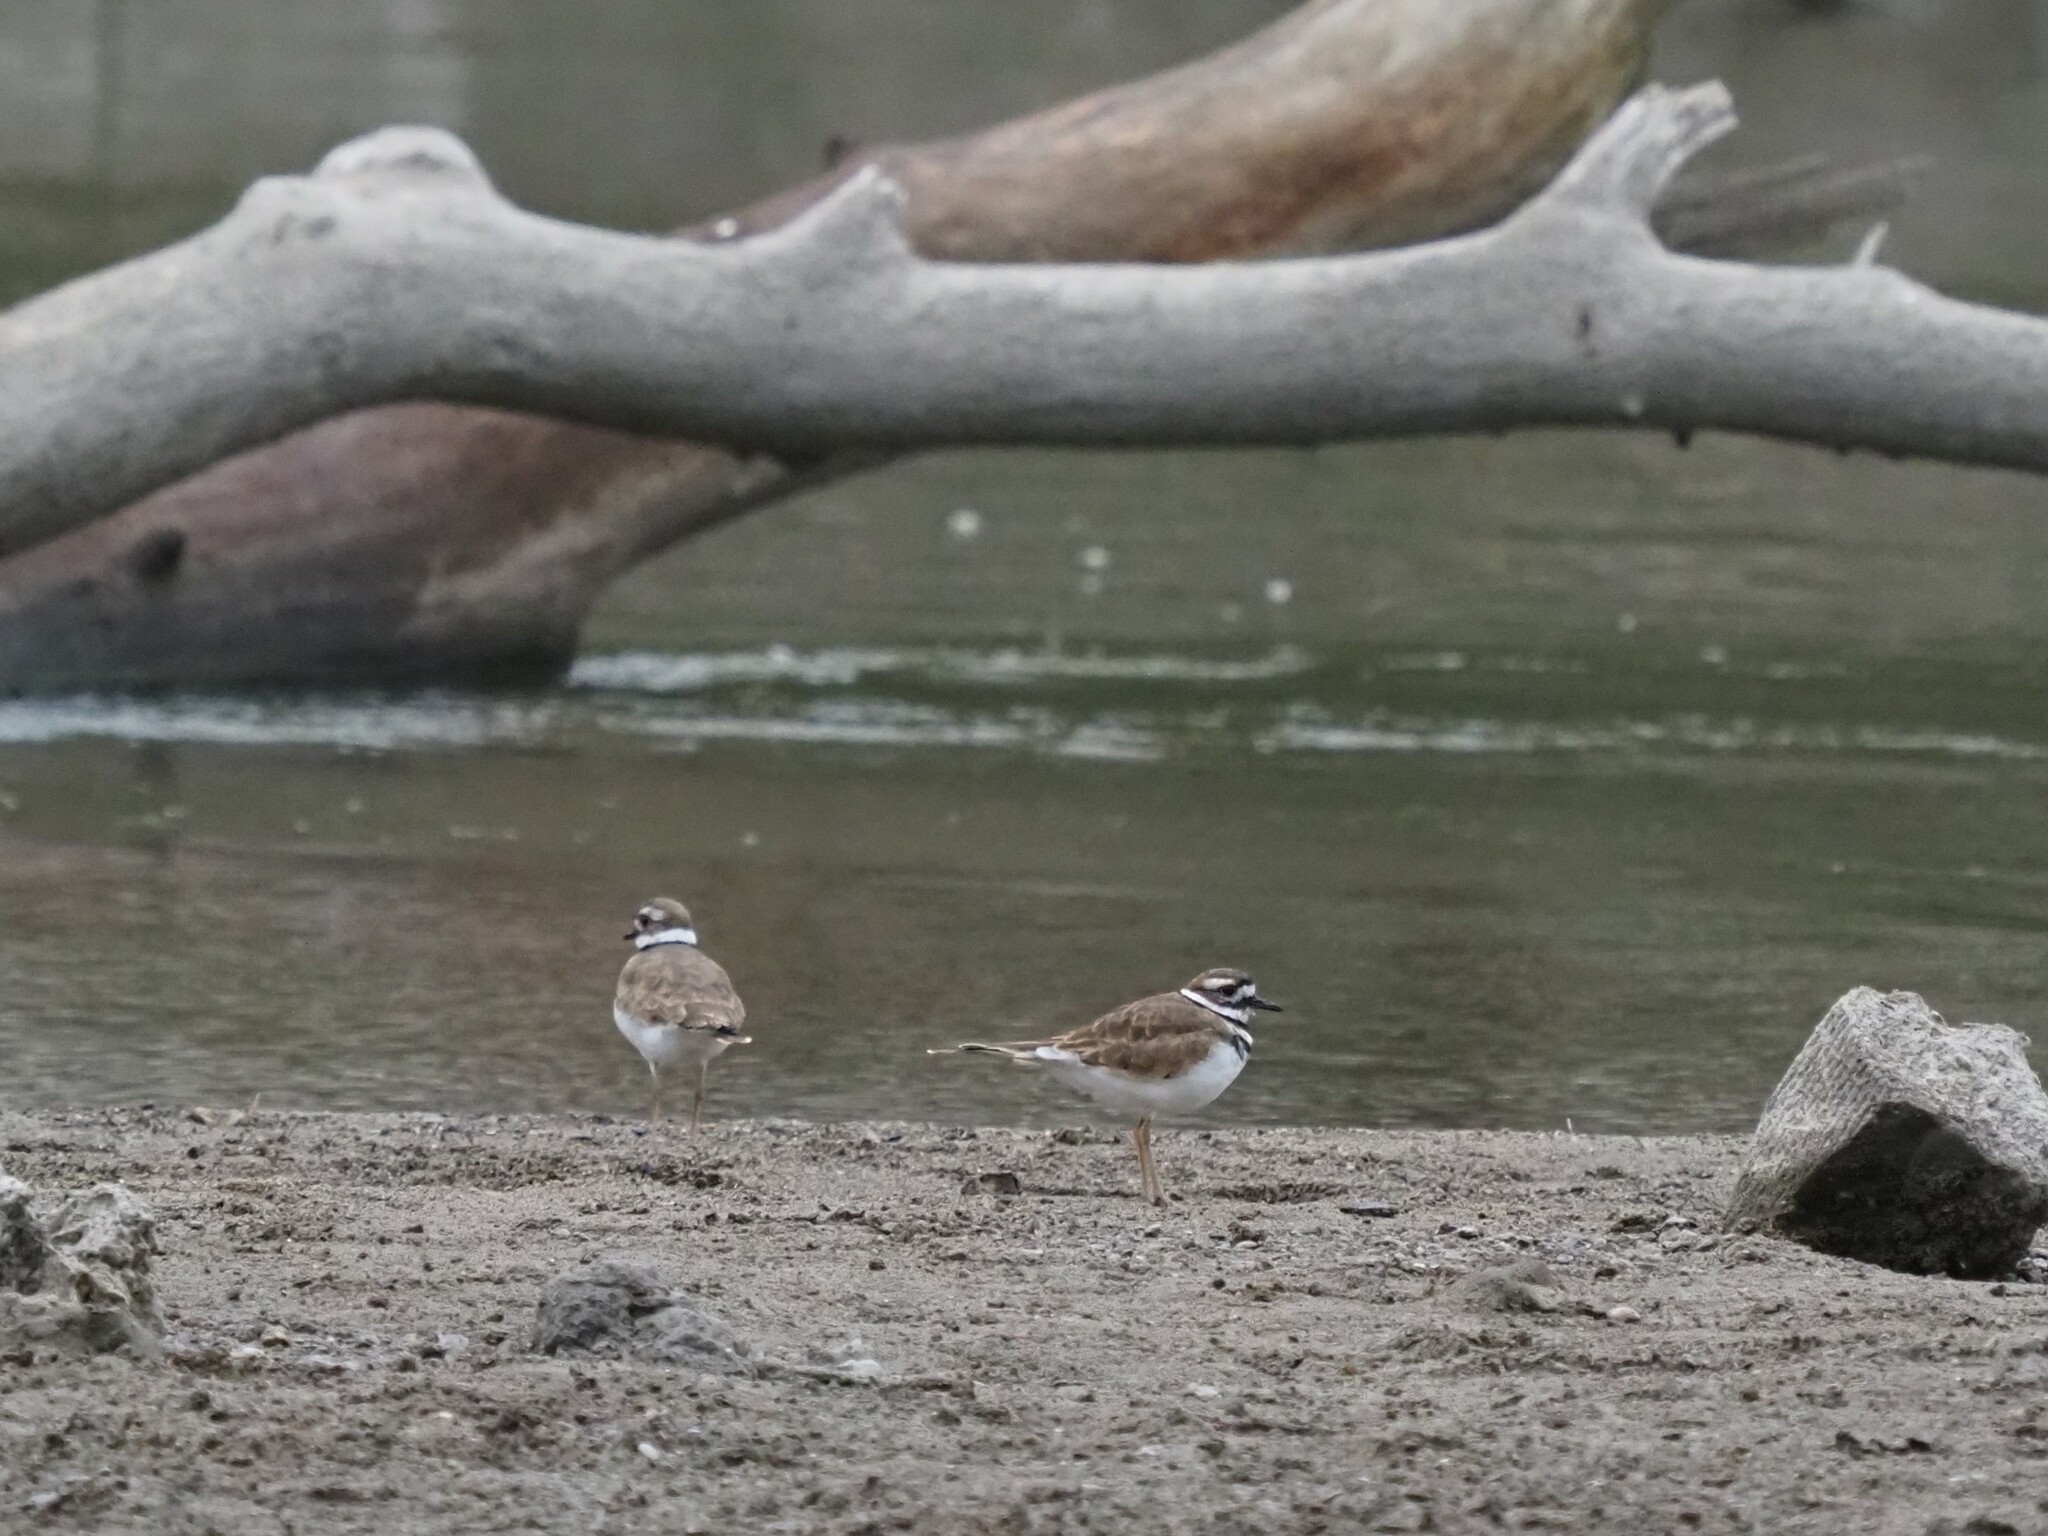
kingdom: Animalia
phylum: Chordata
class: Aves
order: Charadriiformes
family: Charadriidae
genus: Charadrius
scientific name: Charadrius vociferus
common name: Killdeer
